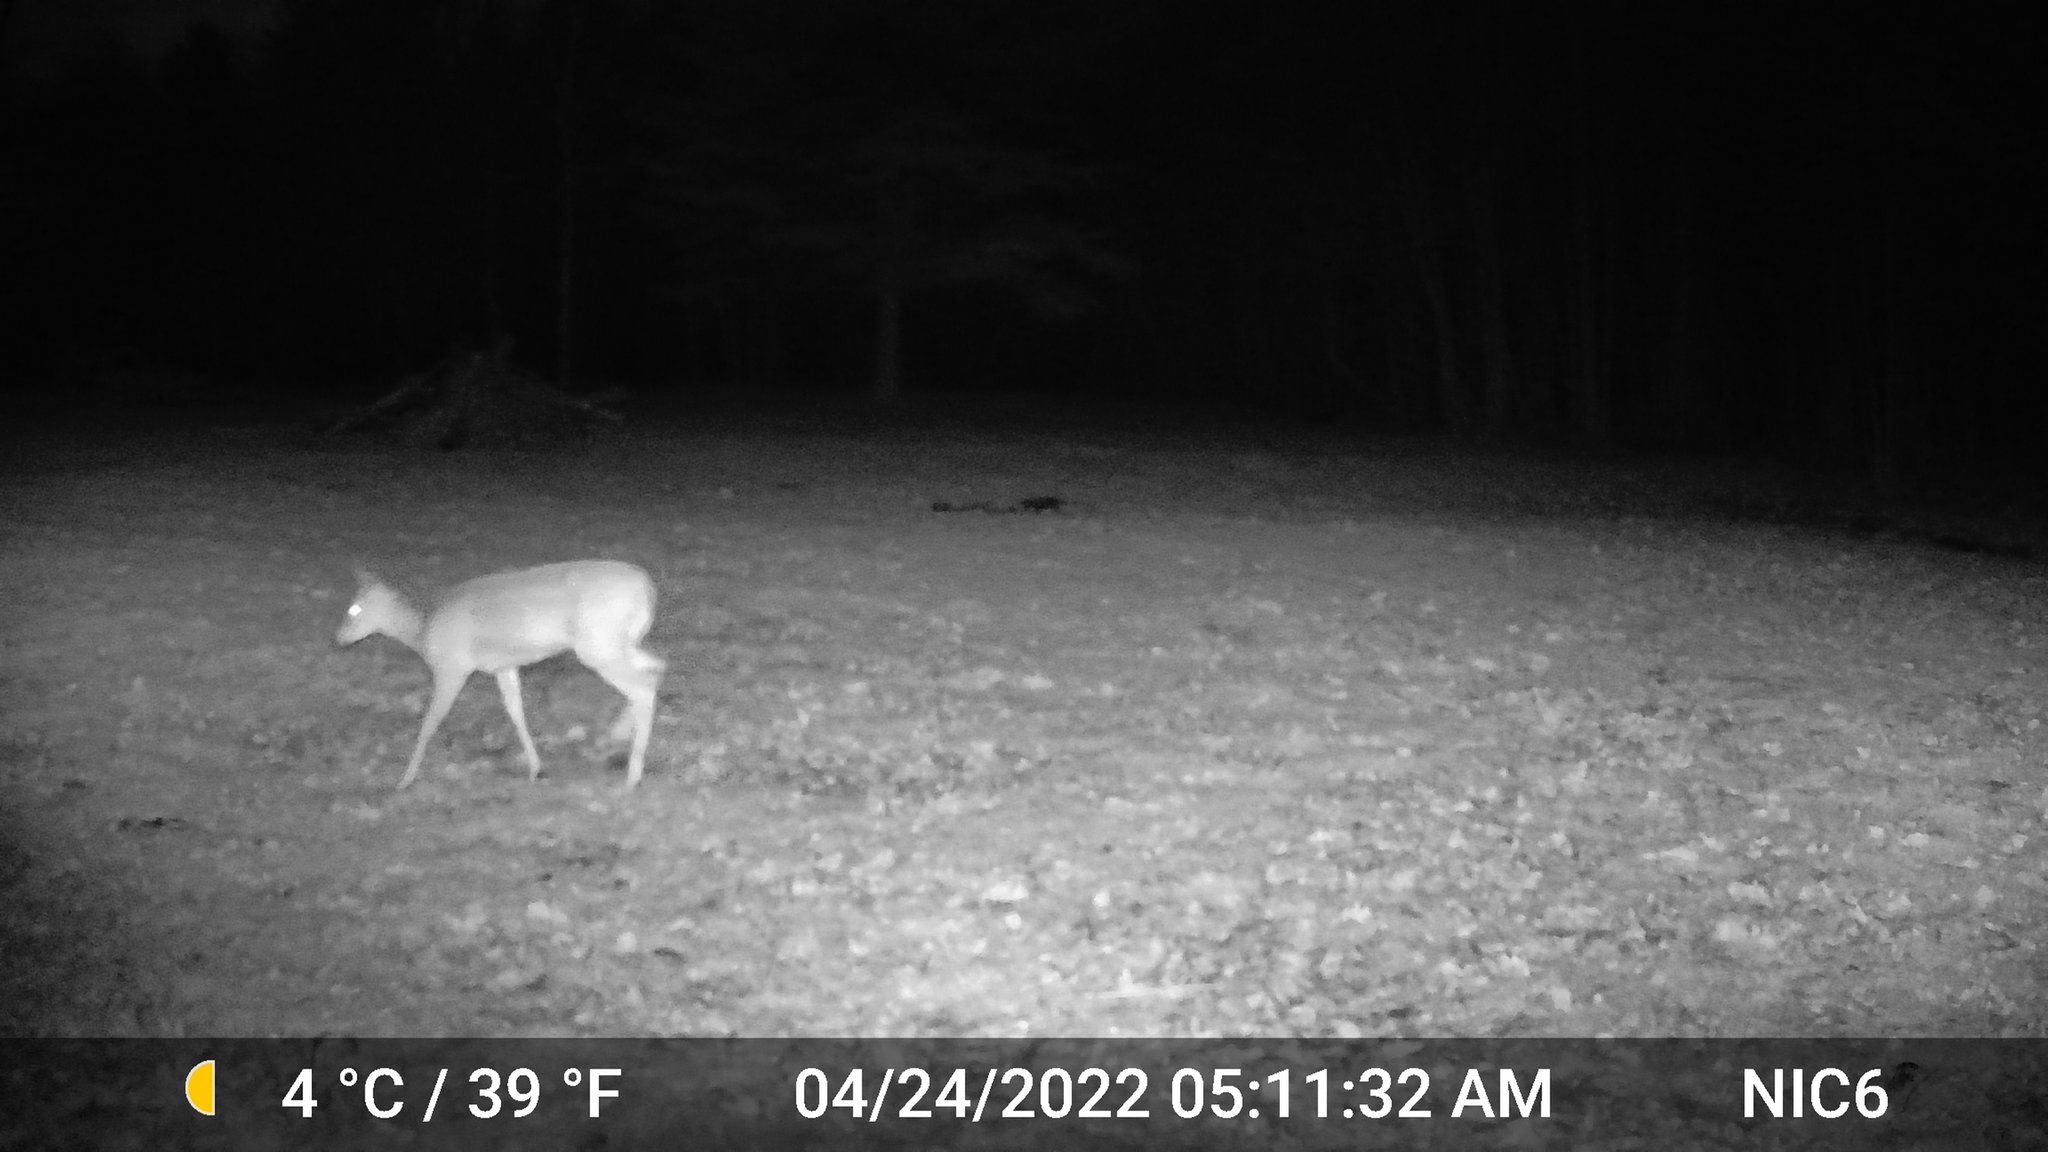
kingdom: Animalia
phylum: Chordata
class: Mammalia
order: Artiodactyla
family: Cervidae
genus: Odocoileus
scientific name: Odocoileus virginianus
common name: White-tailed deer
